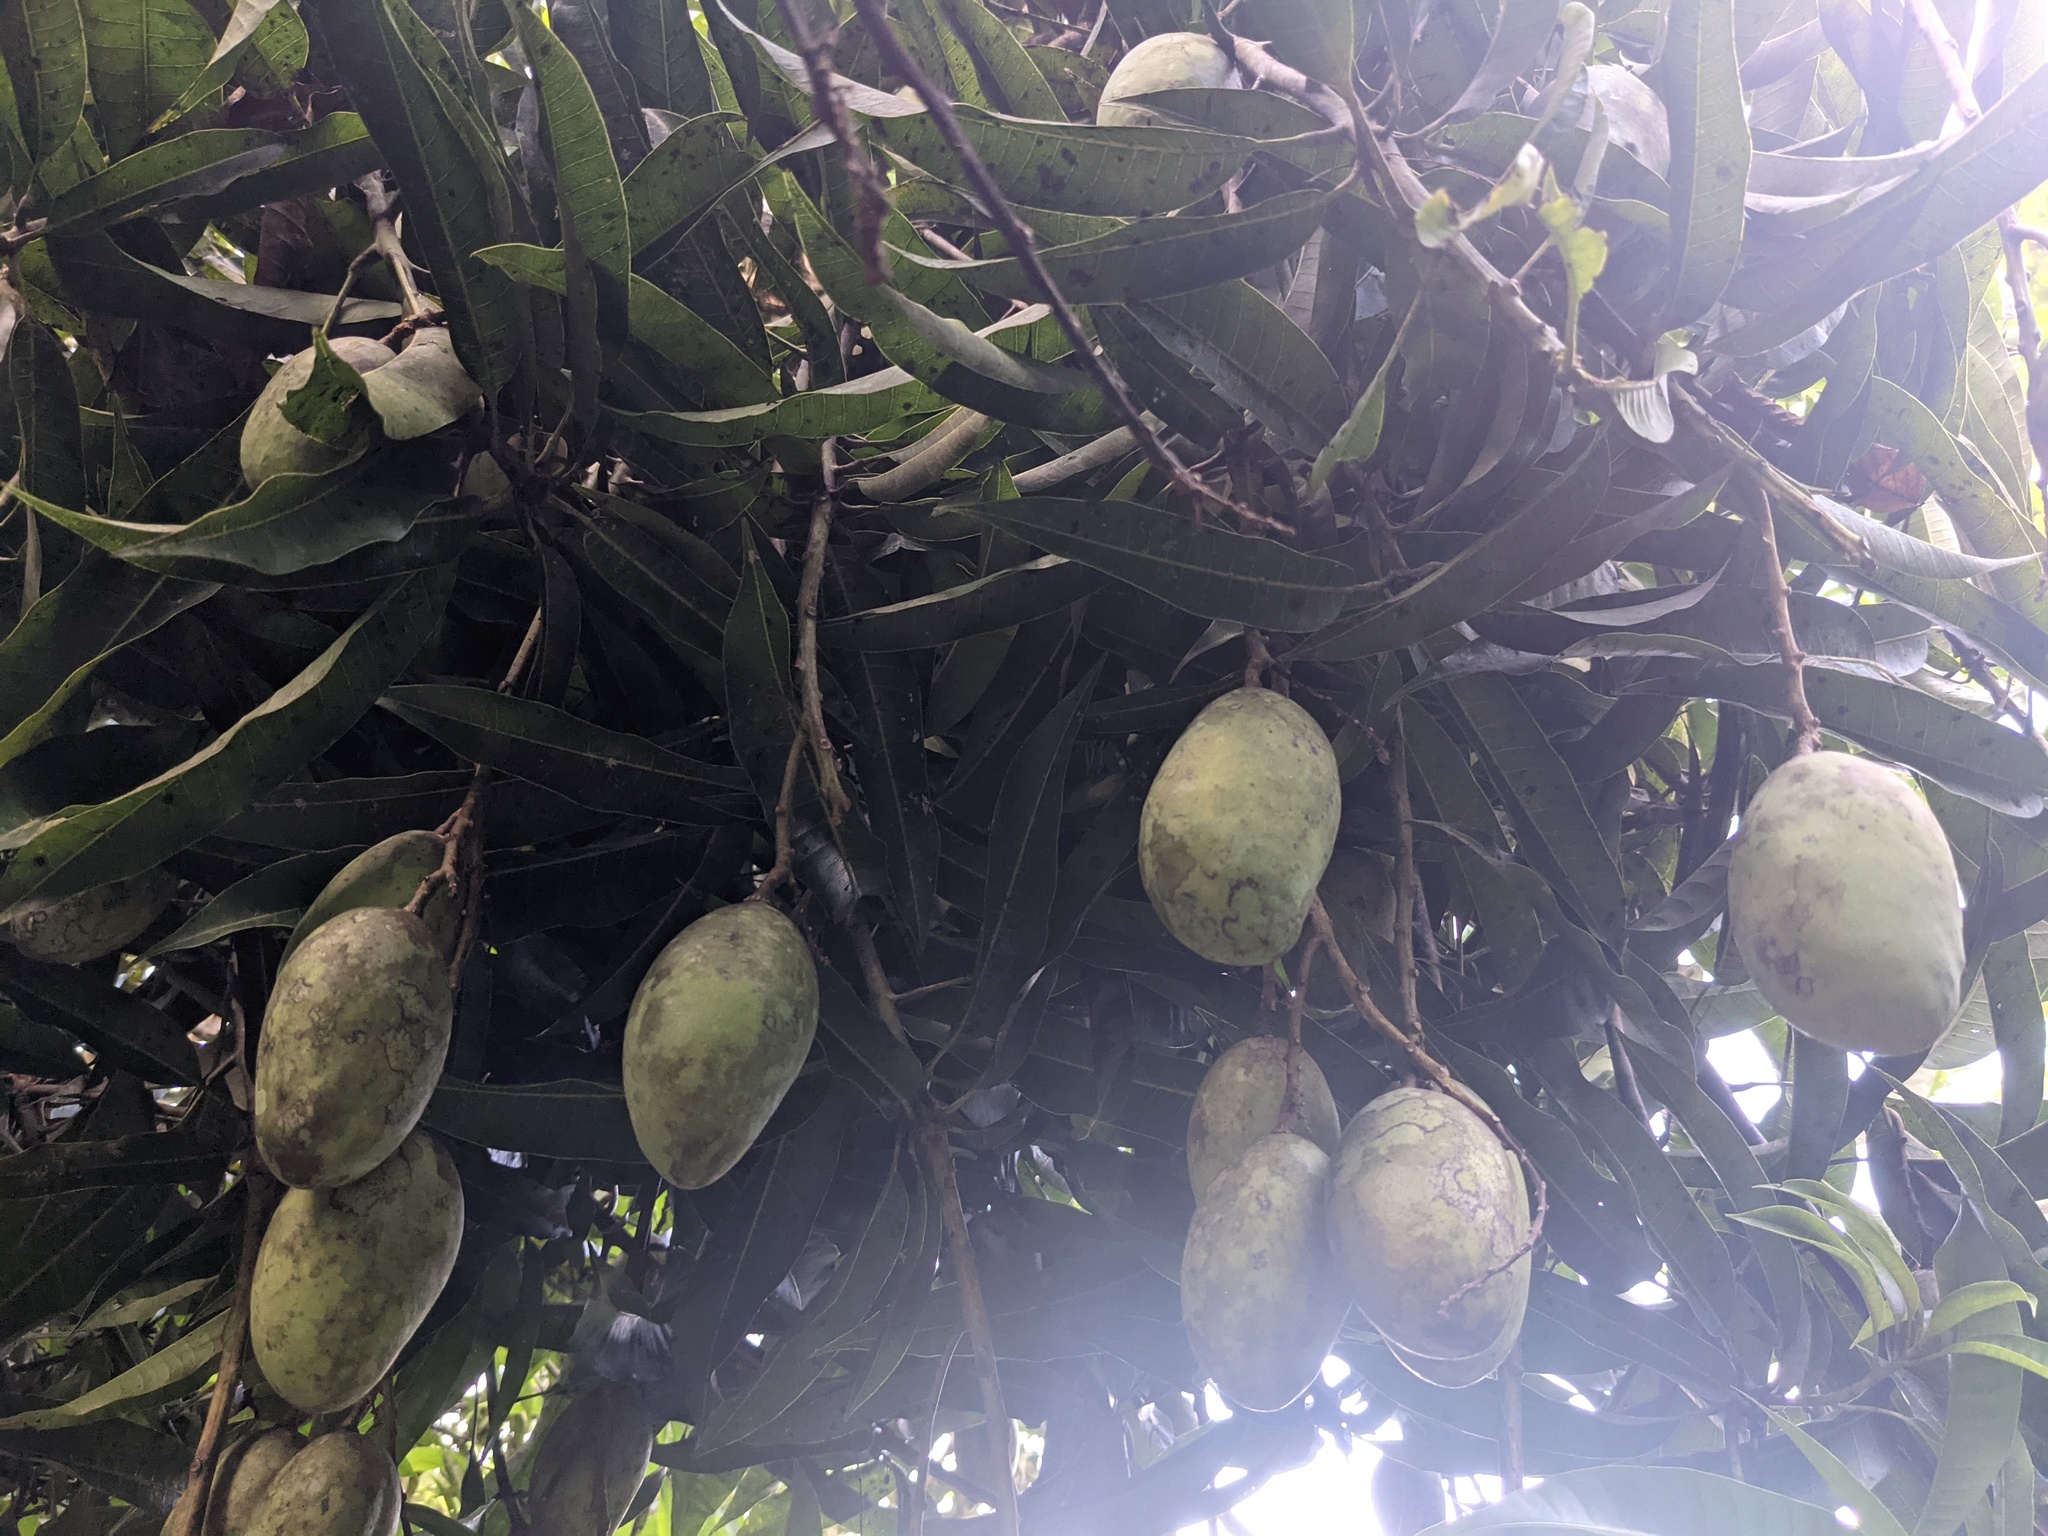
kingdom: Plantae
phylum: Tracheophyta
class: Magnoliopsida
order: Sapindales
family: Anacardiaceae
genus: Mangifera
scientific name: Mangifera indica
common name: Mango
